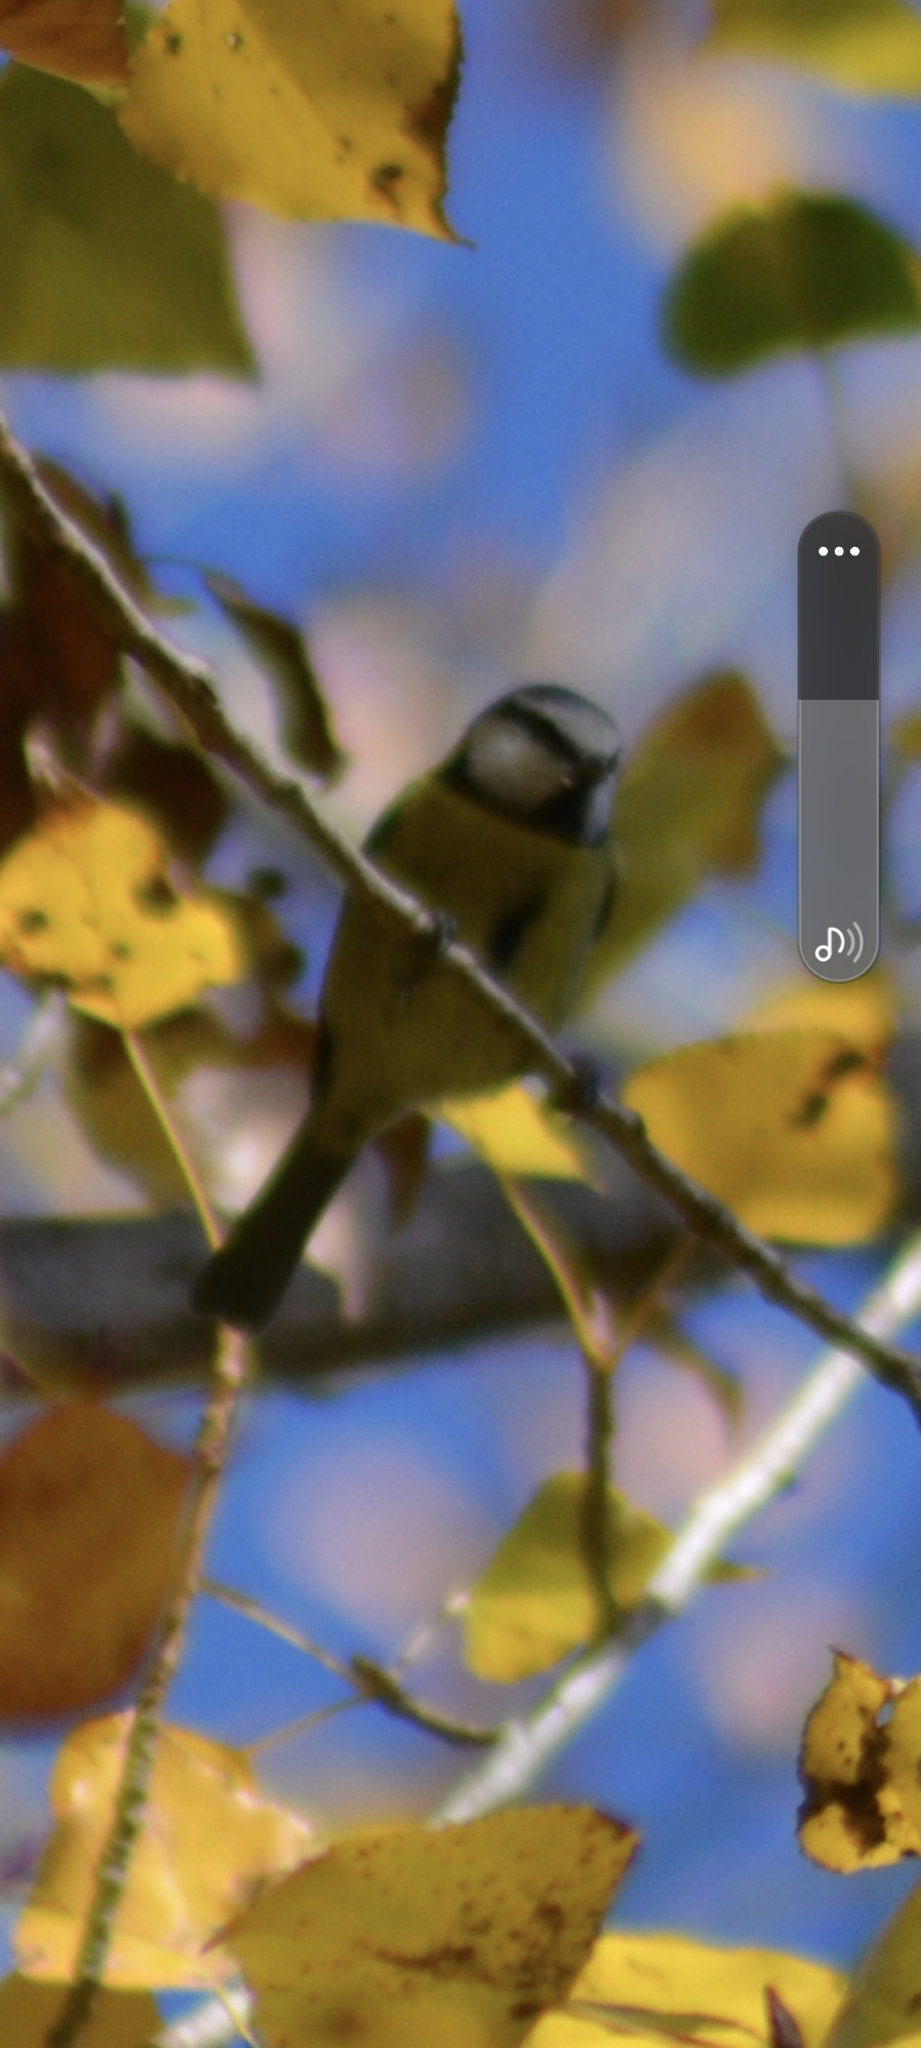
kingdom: Animalia
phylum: Chordata
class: Aves
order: Passeriformes
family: Paridae
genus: Cyanistes
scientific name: Cyanistes caeruleus
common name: Eurasian blue tit
